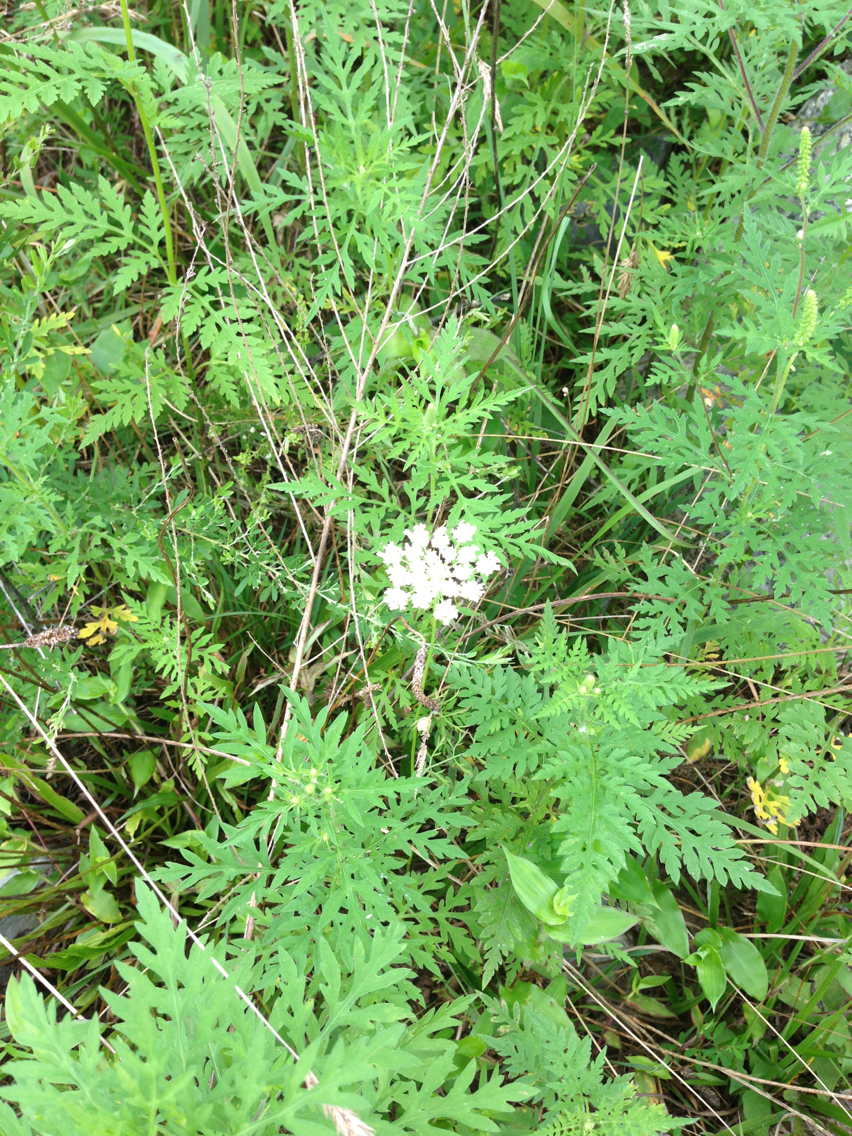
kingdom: Plantae
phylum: Tracheophyta
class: Magnoliopsida
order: Apiales
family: Apiaceae
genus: Daucus
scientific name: Daucus carota
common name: Wild carrot
